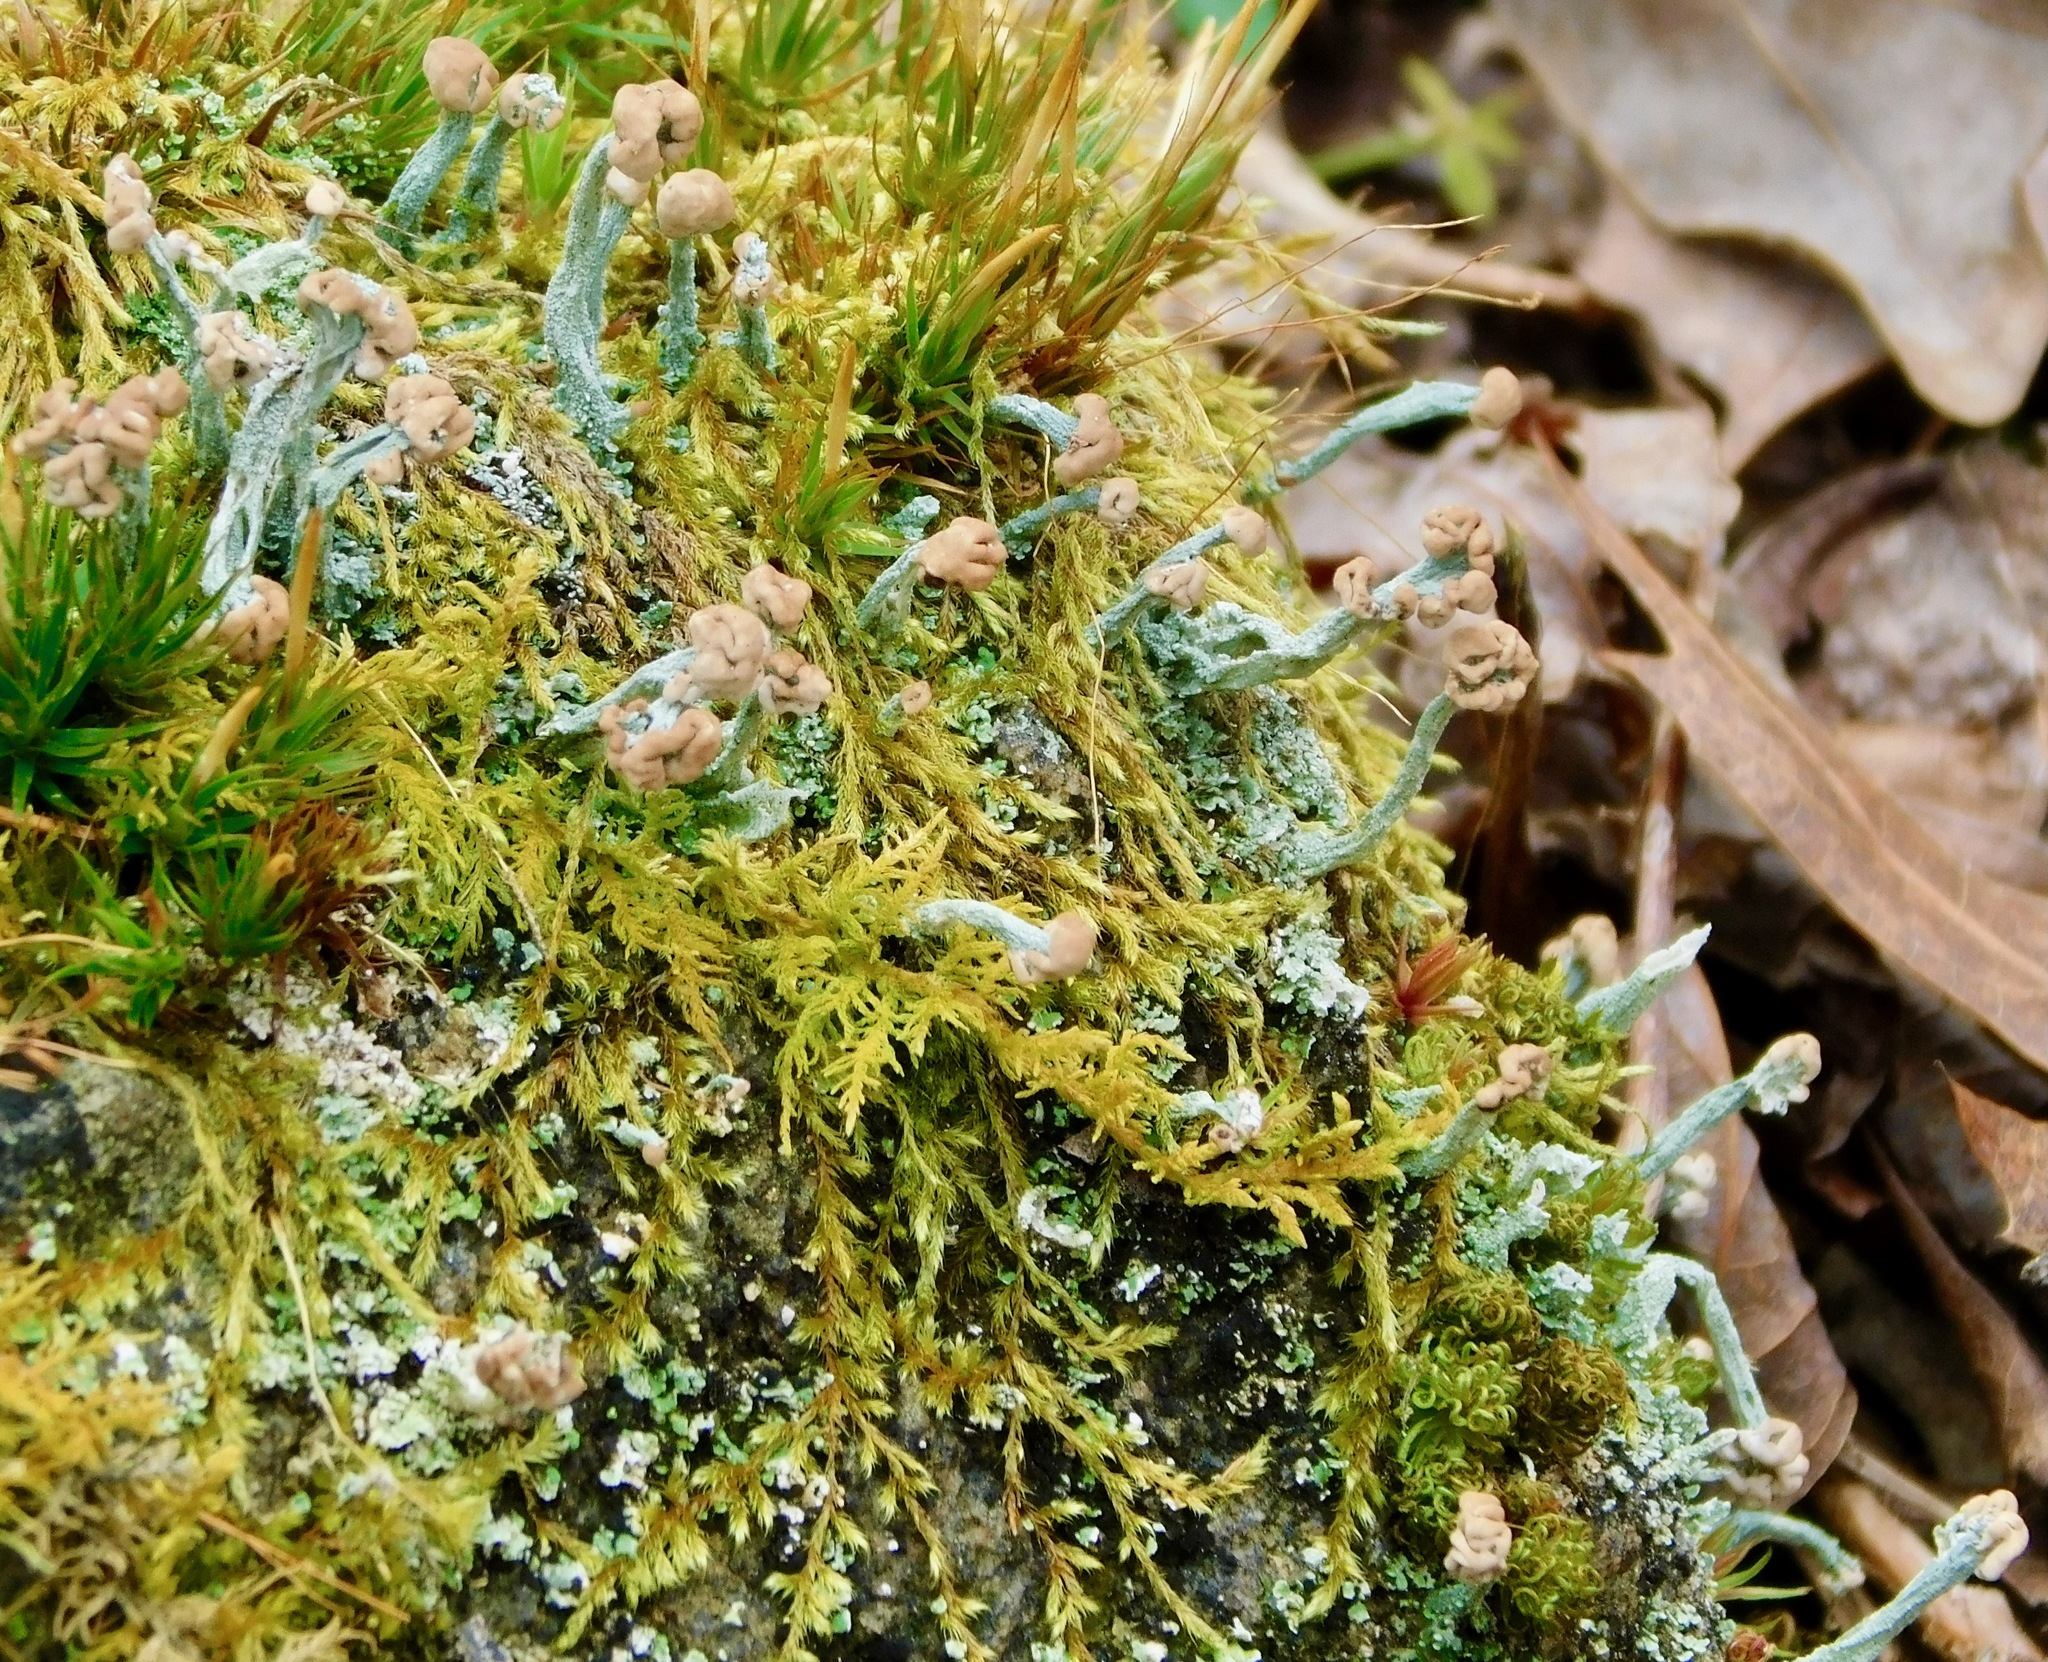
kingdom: Fungi
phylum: Ascomycota
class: Lecanoromycetes
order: Lecanorales
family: Cladoniaceae
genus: Cladonia
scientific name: Cladonia peziziformis
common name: Cup lichen
